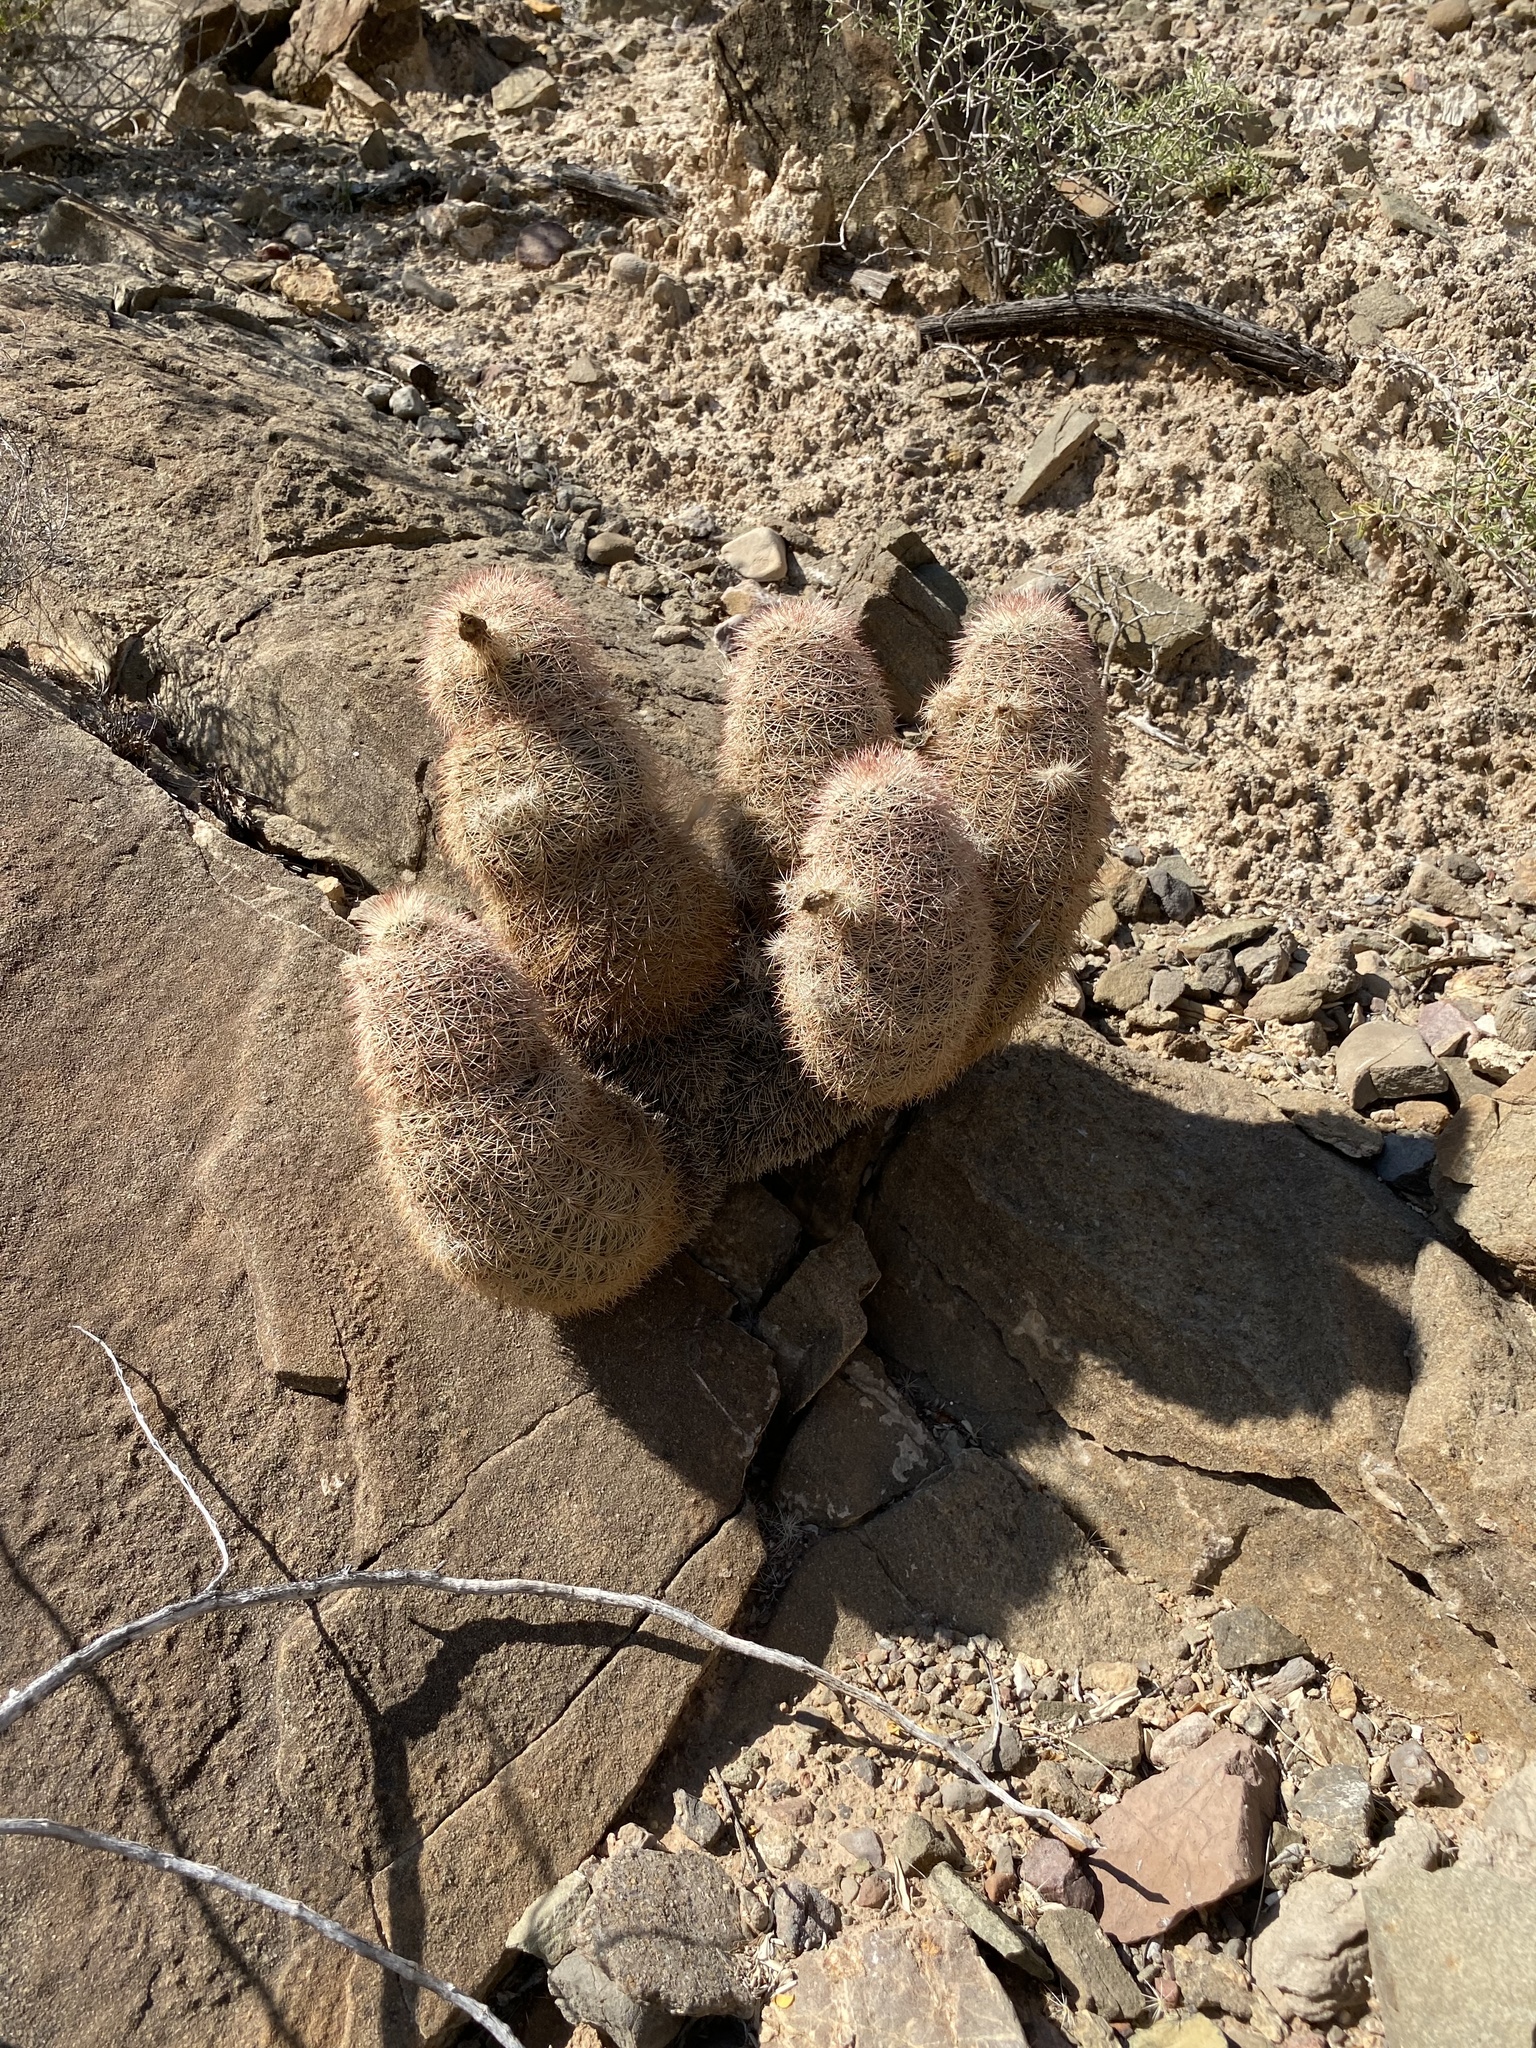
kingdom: Plantae
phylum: Tracheophyta
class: Magnoliopsida
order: Caryophyllales
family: Cactaceae
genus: Echinocereus
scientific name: Echinocereus dasyacanthus
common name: Spiny hedgehog cactus
